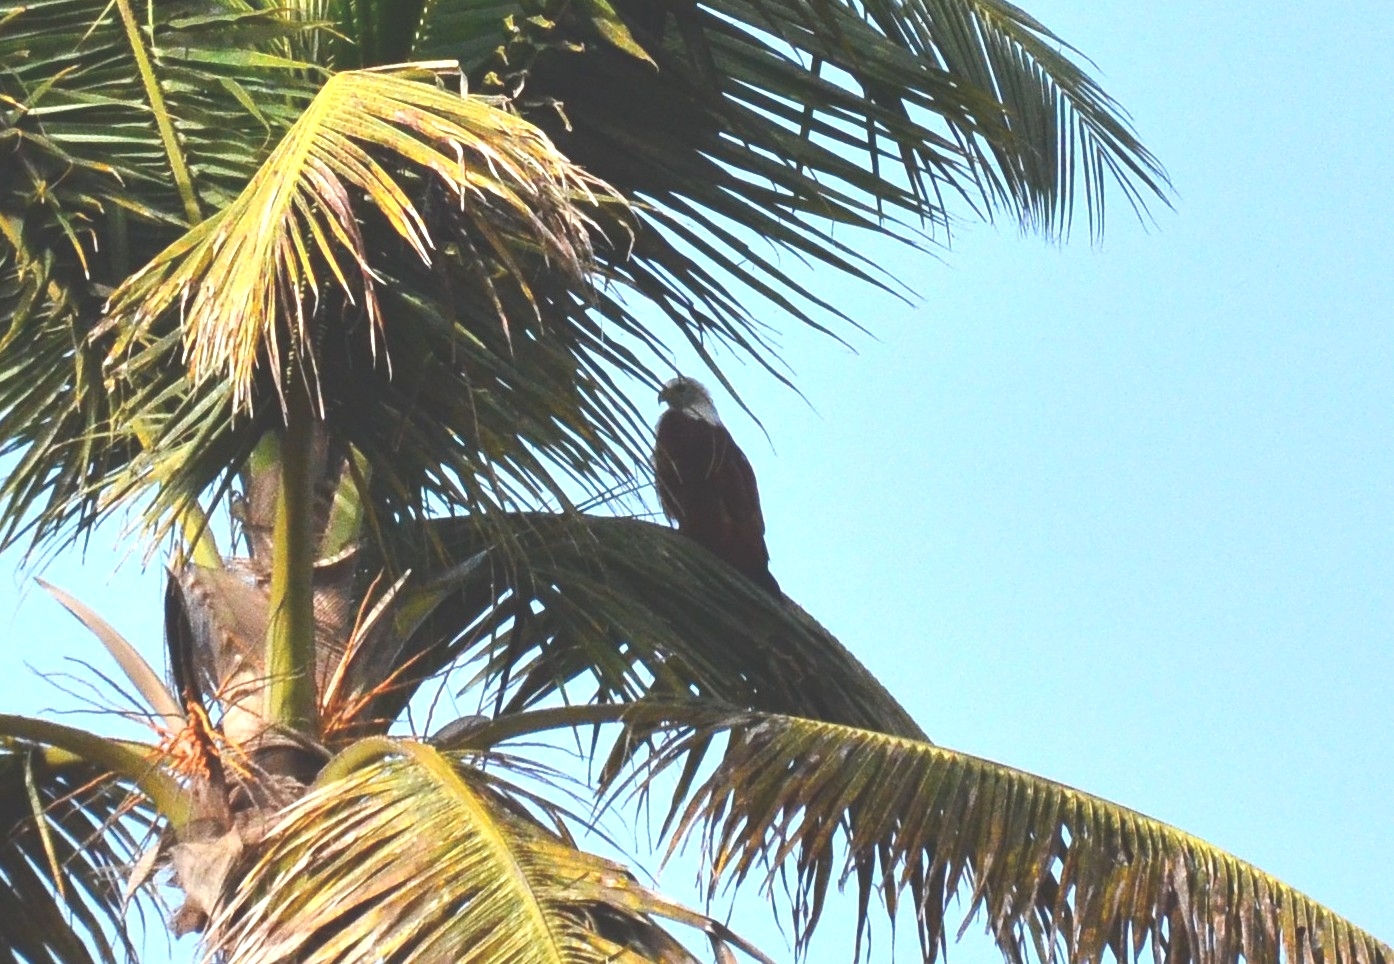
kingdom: Animalia
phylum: Chordata
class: Aves
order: Accipitriformes
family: Accipitridae
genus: Haliastur
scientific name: Haliastur indus
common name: Brahminy kite
